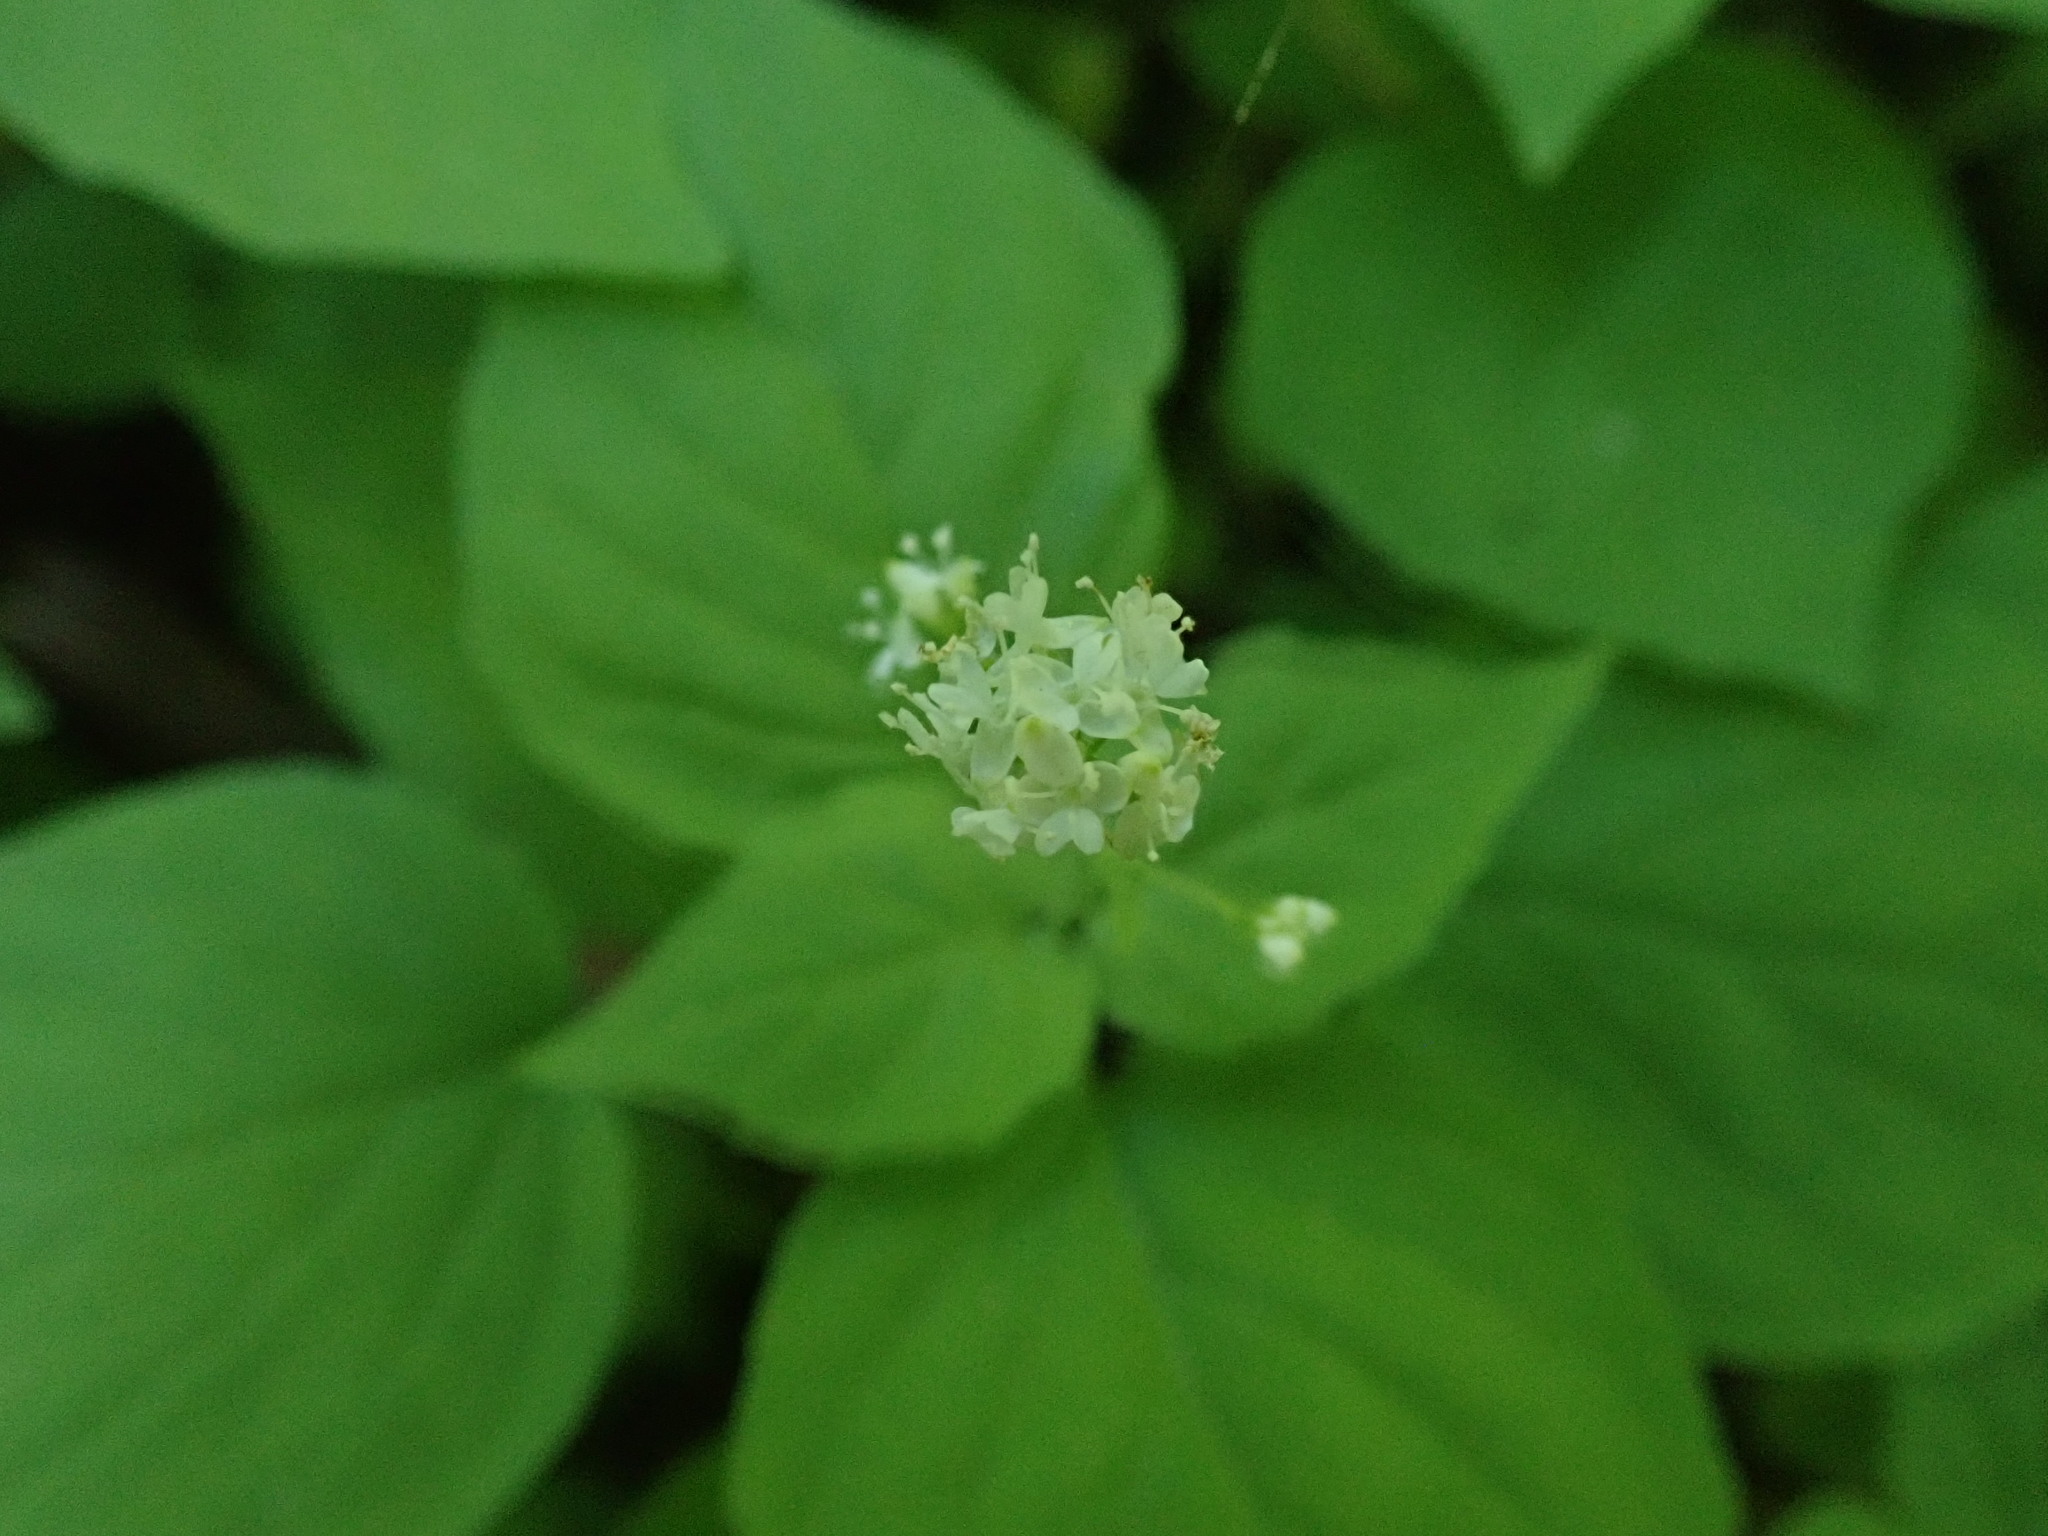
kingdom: Plantae
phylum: Tracheophyta
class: Magnoliopsida
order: Myrtales
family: Onagraceae
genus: Circaea
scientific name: Circaea alpina
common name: Alpine enchanter's-nightshade
